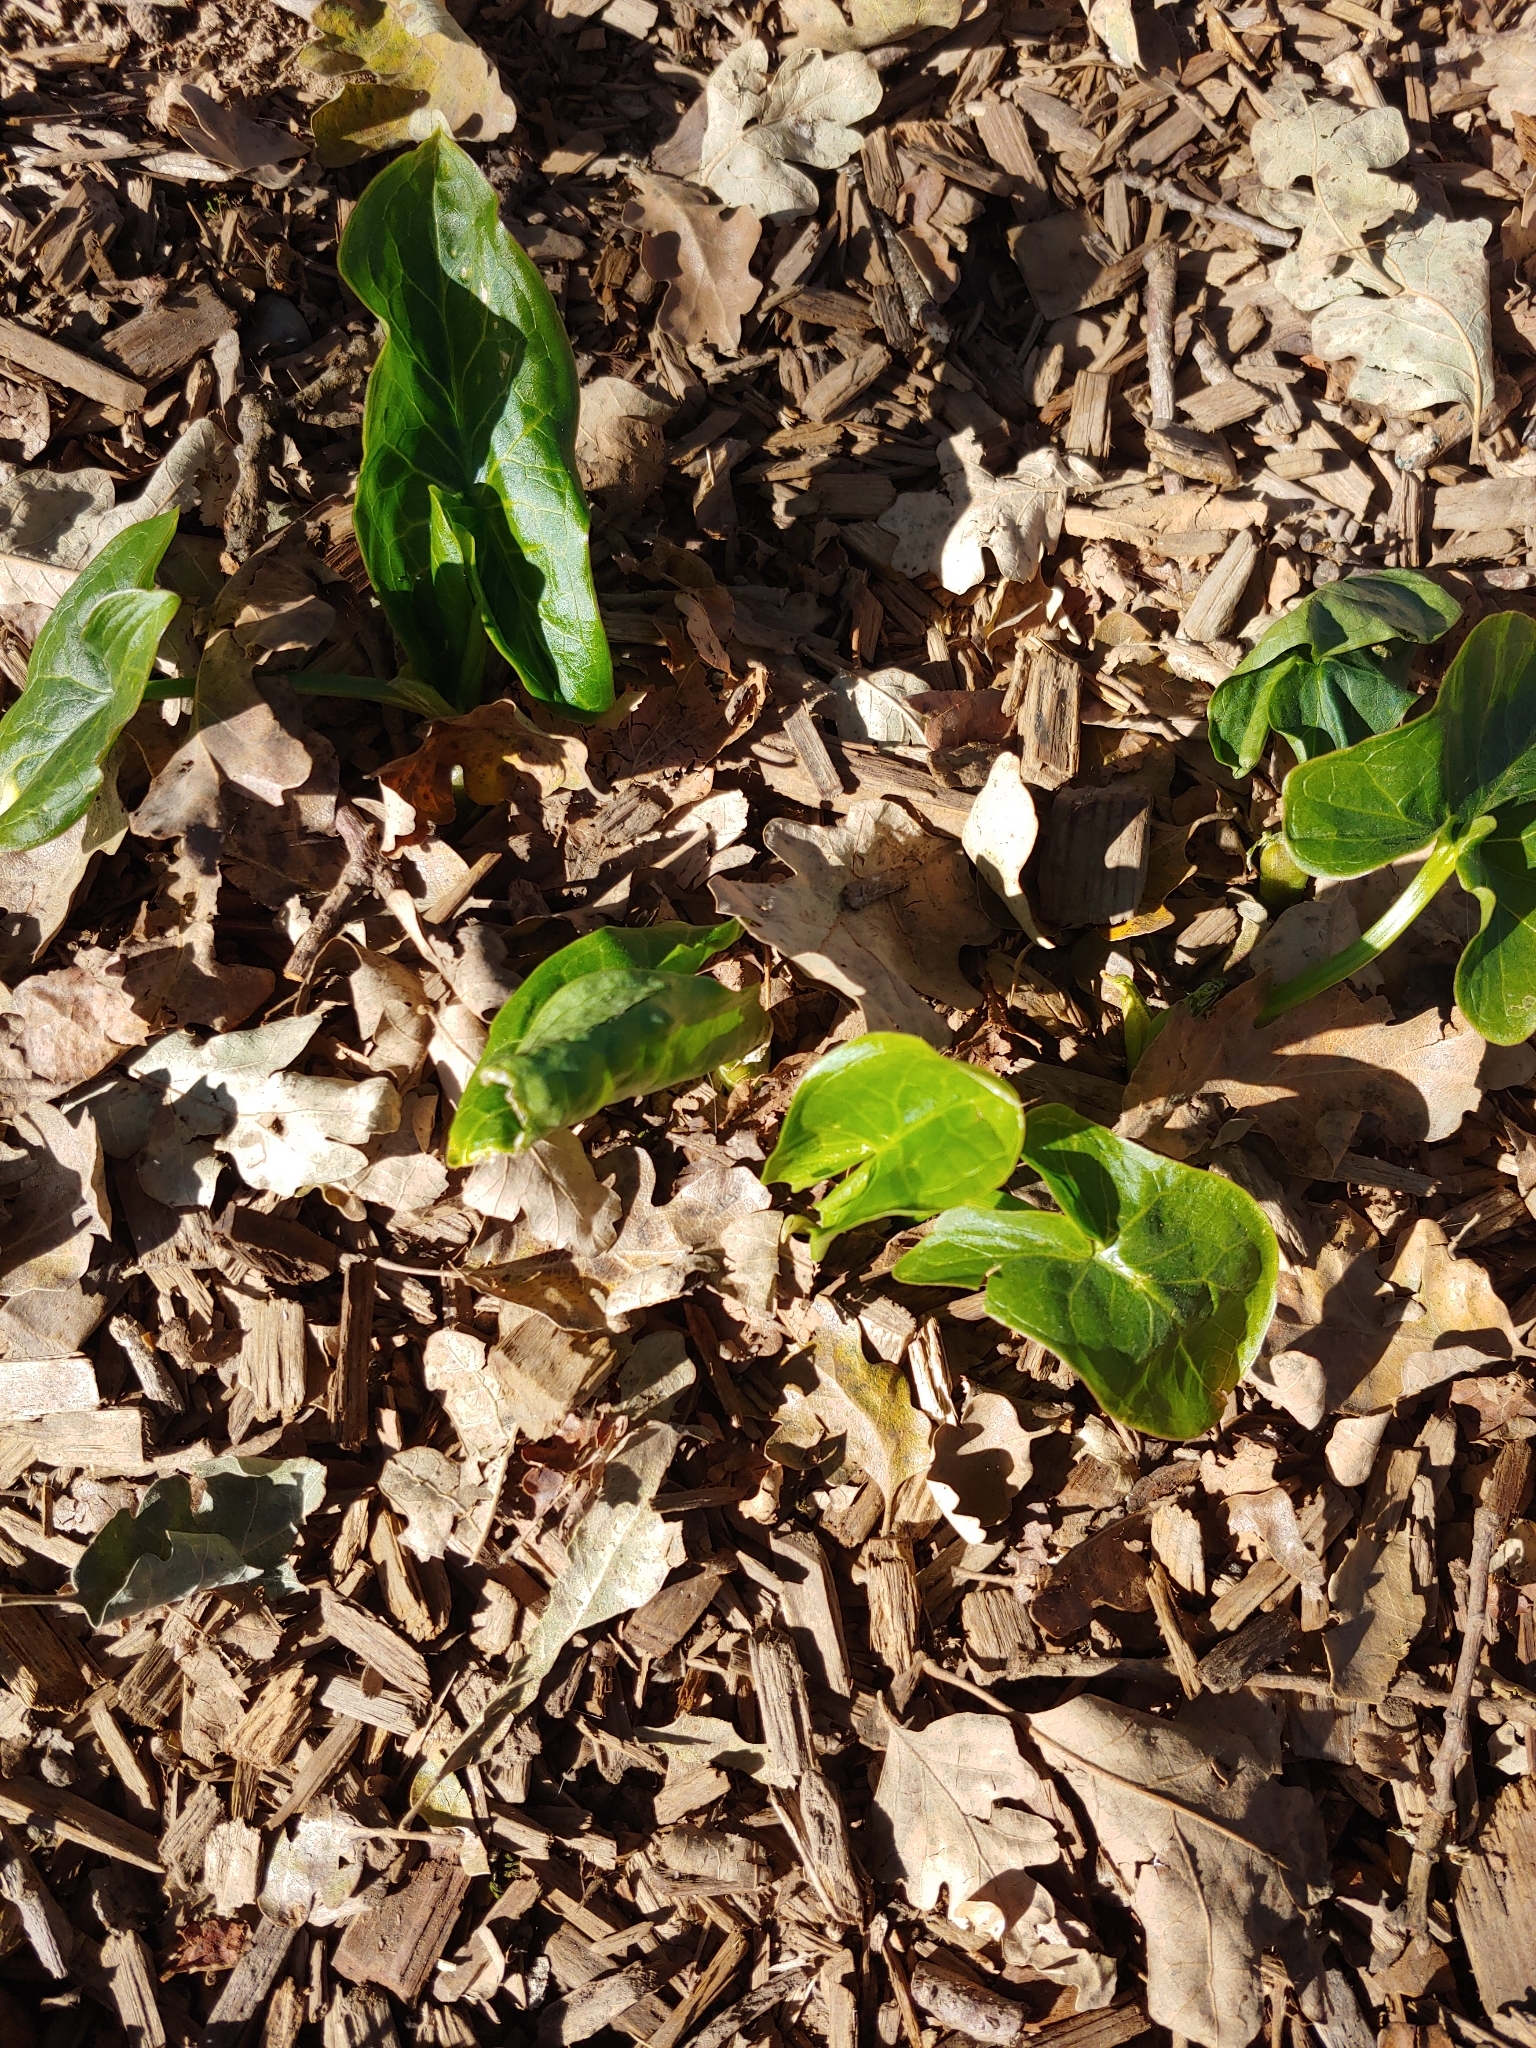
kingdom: Plantae
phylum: Tracheophyta
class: Liliopsida
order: Alismatales
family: Araceae
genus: Arum
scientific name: Arum italicum
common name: Italian lords-and-ladies
